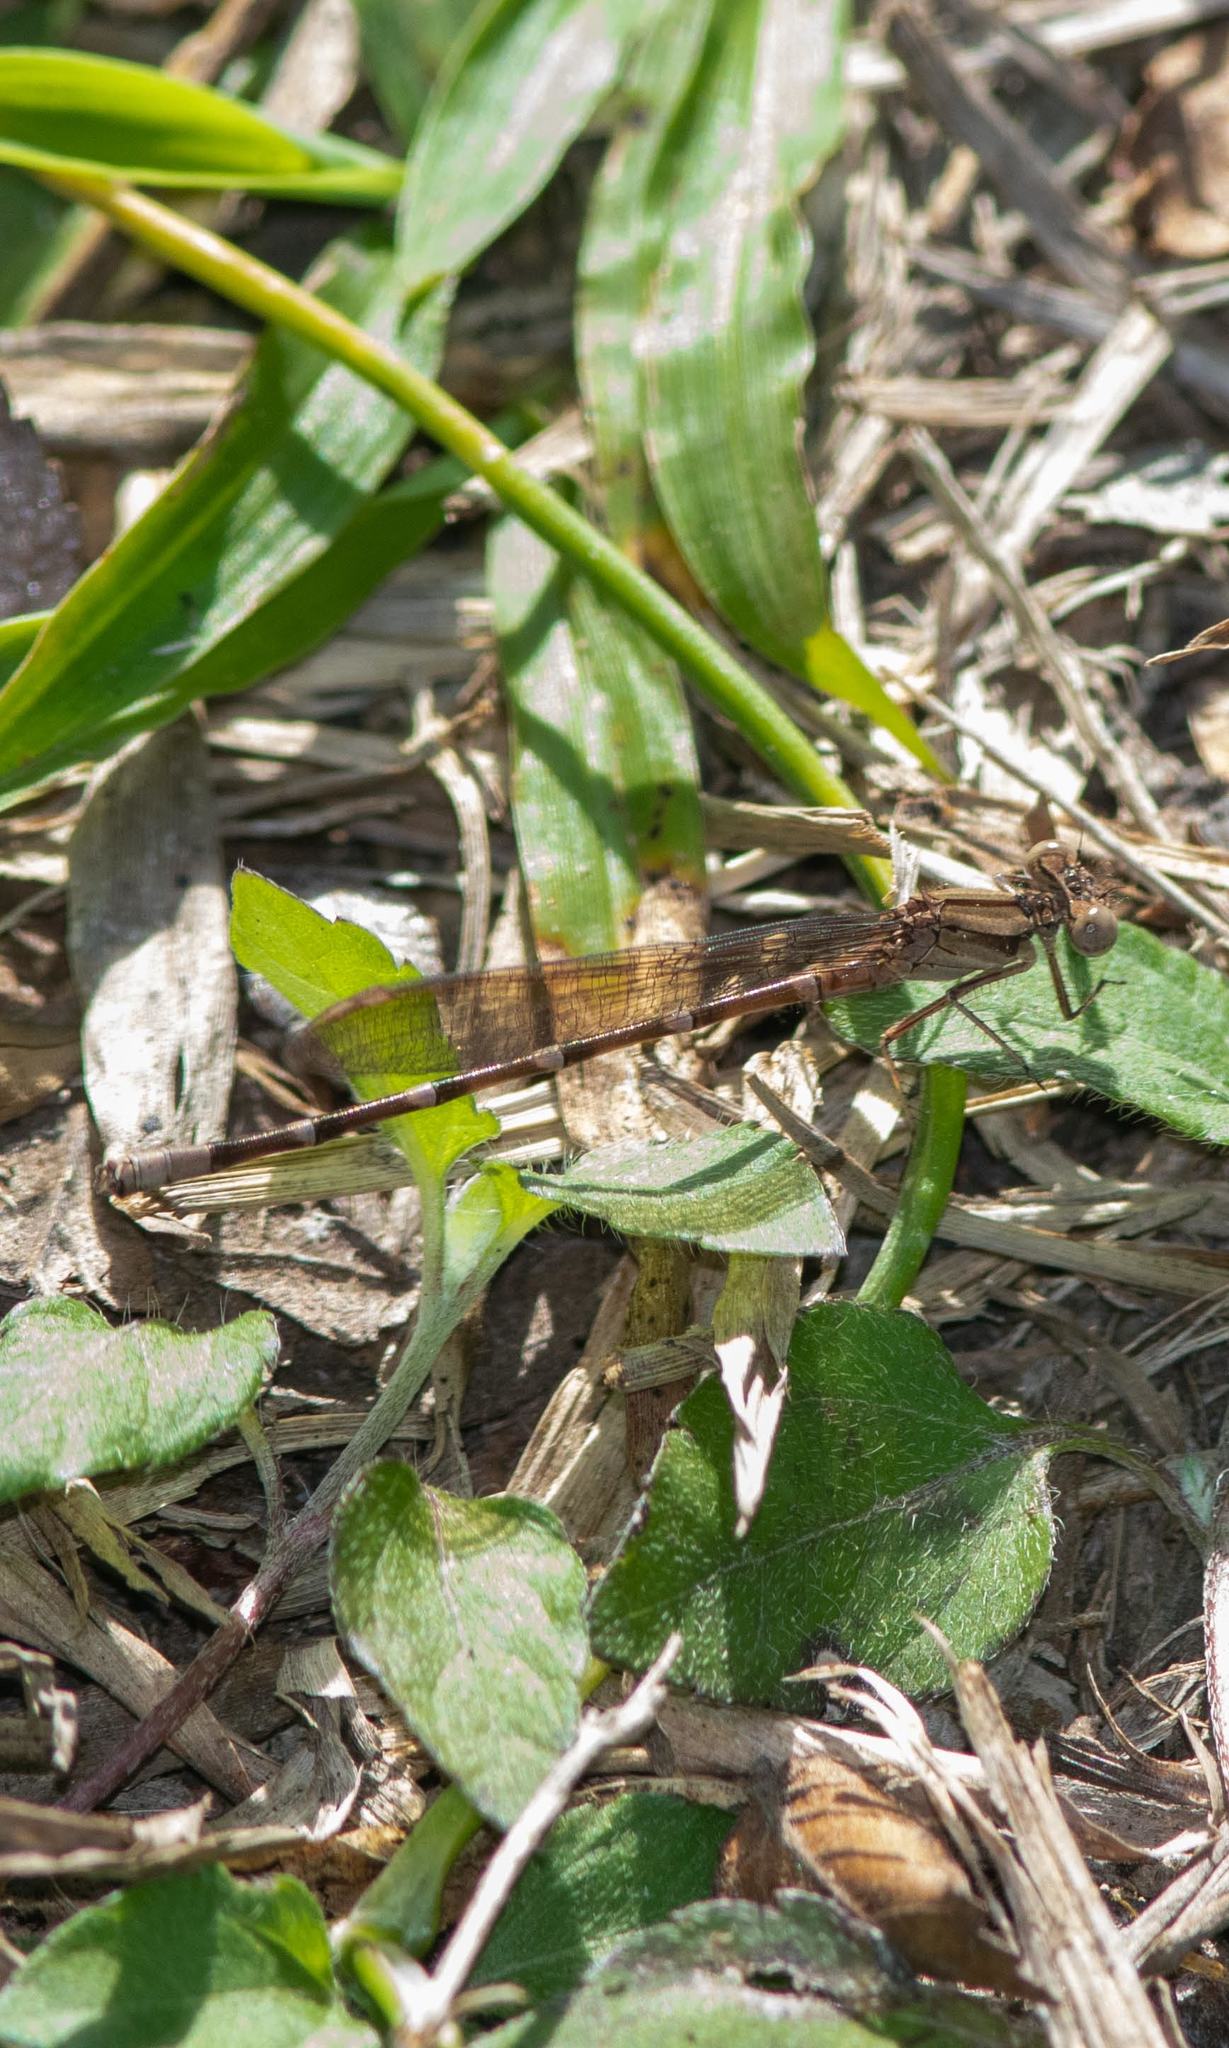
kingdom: Animalia
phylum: Arthropoda
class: Insecta
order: Odonata
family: Coenagrionidae
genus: Argia
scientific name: Argia sedula
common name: Blue-ringed dancer
